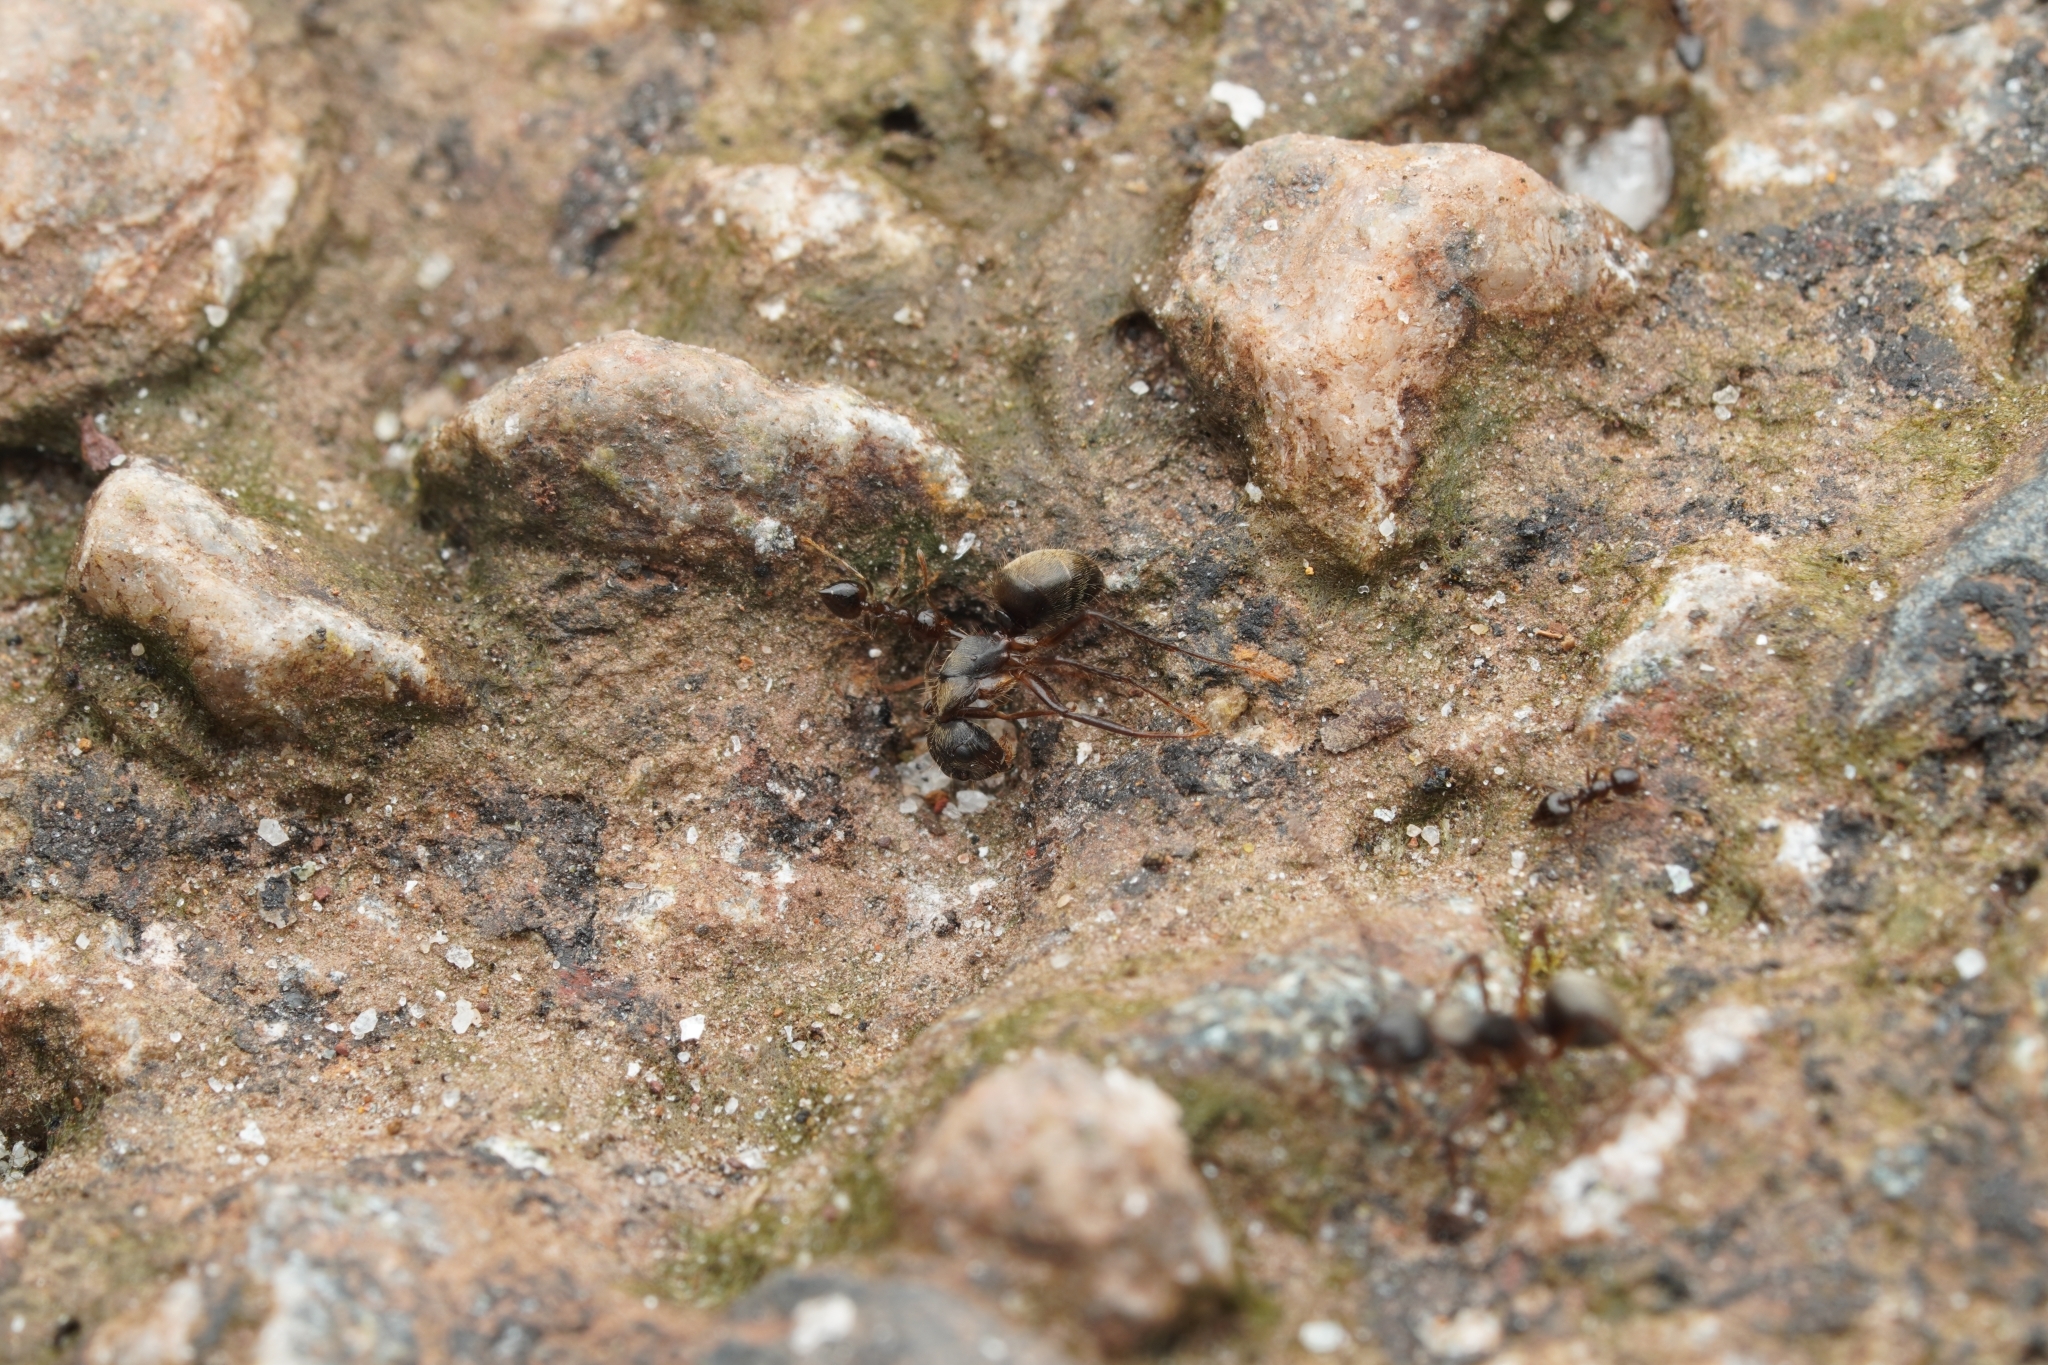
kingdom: Animalia
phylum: Arthropoda
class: Insecta
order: Hymenoptera
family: Formicidae
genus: Camponotus
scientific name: Camponotus femoratus
